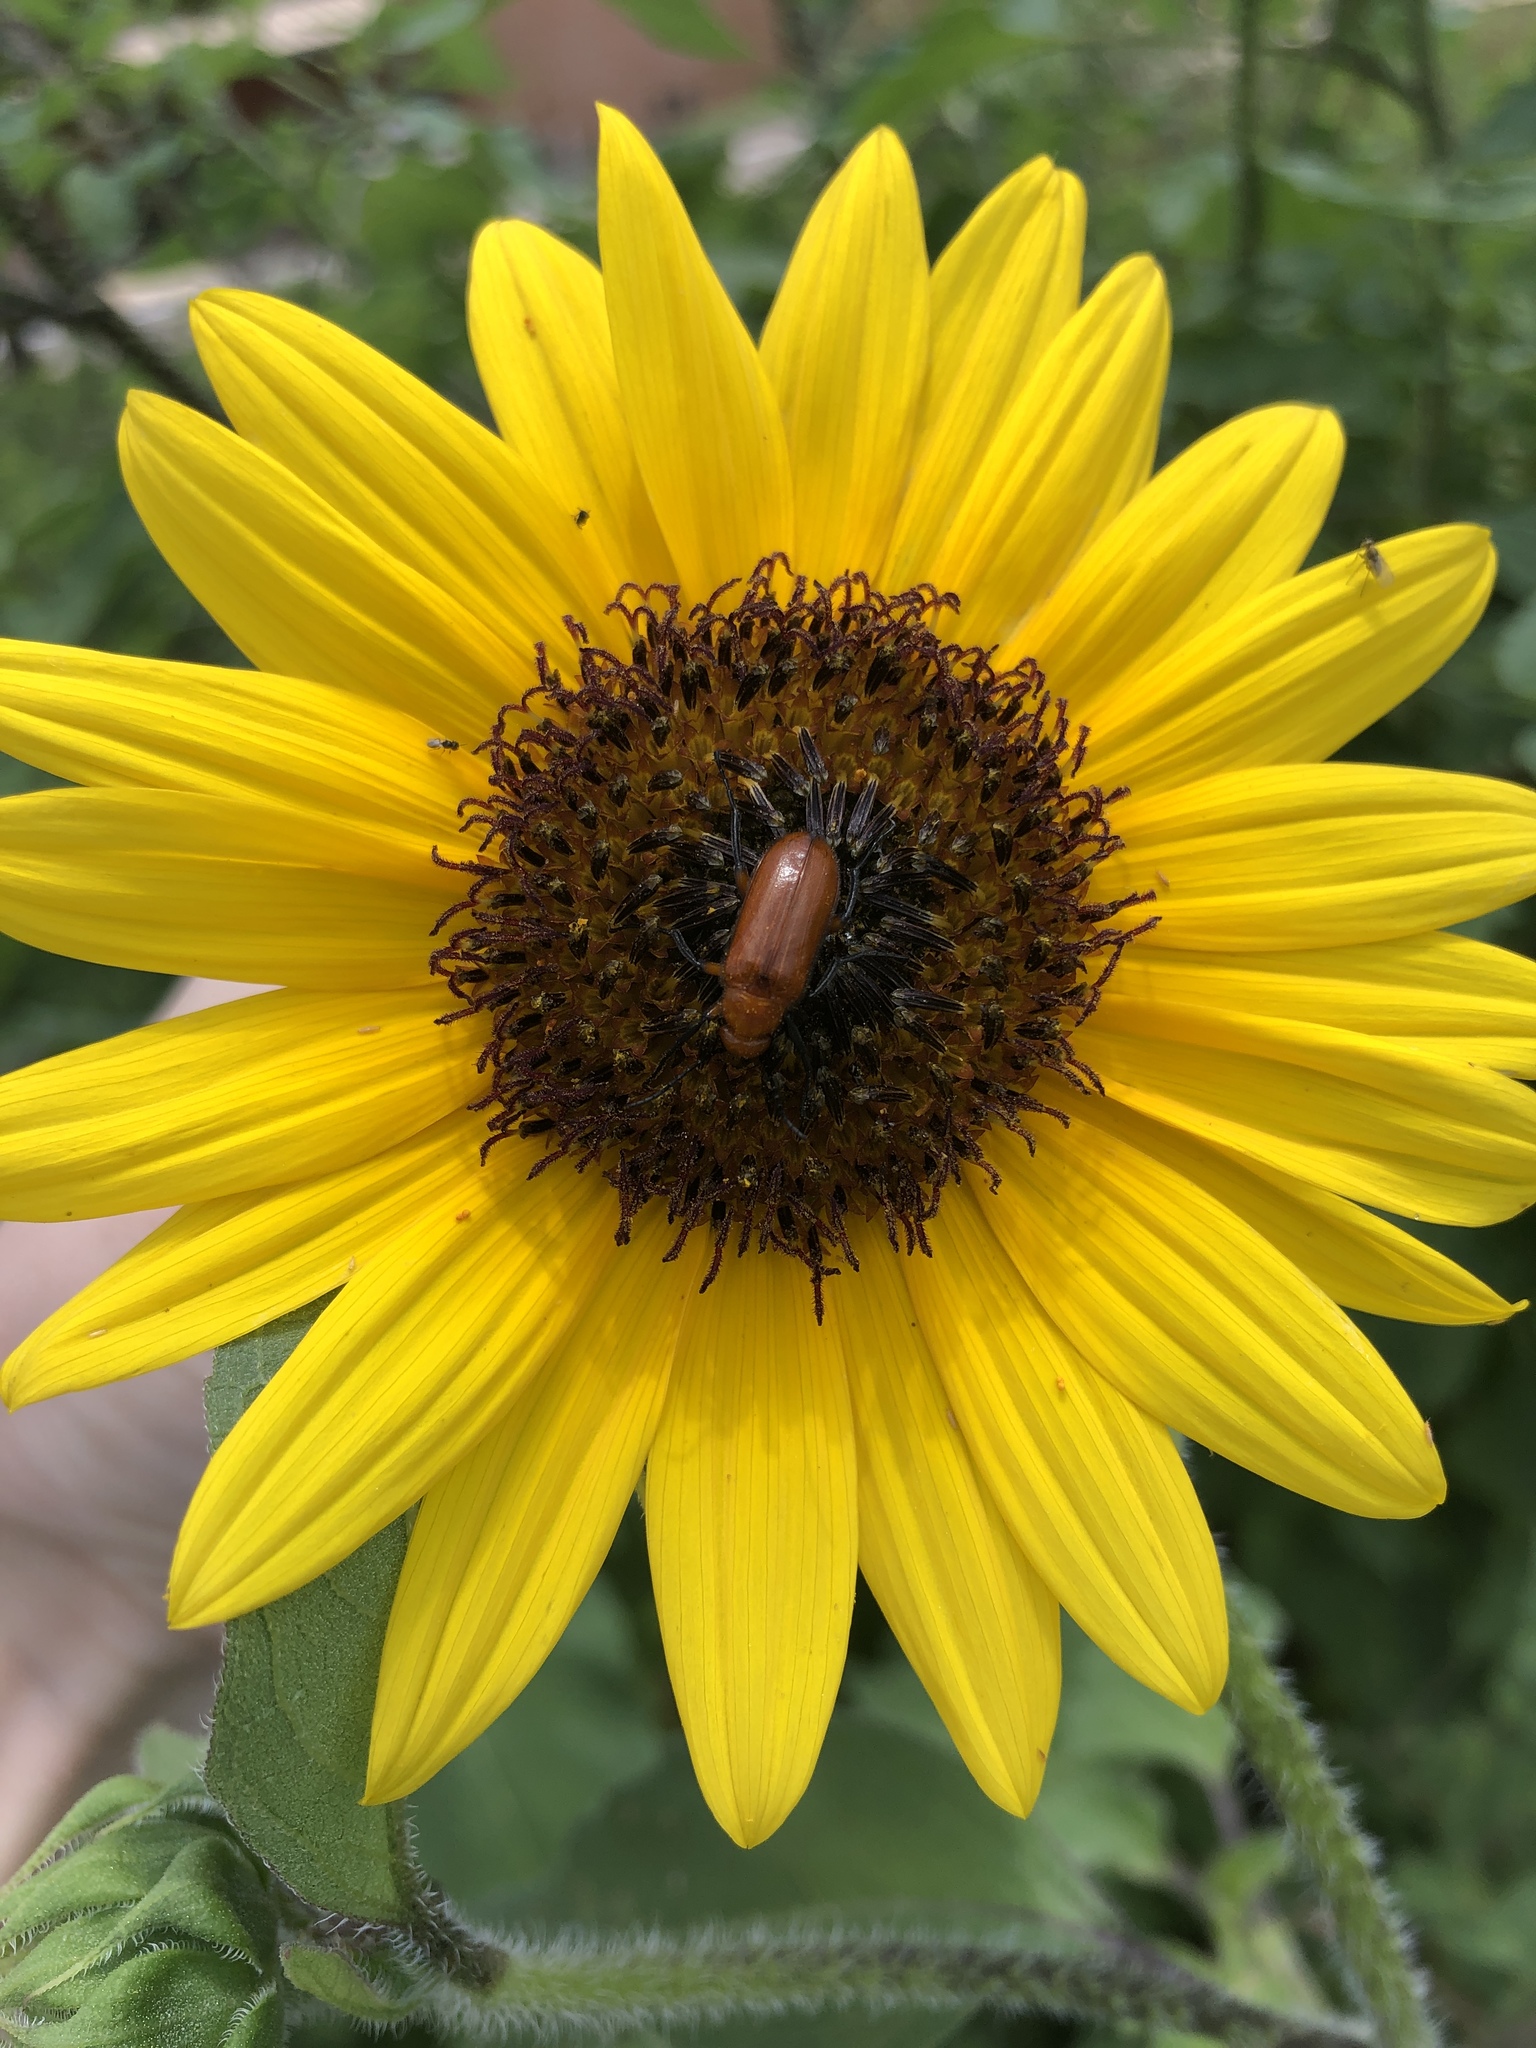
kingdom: Plantae
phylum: Tracheophyta
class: Magnoliopsida
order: Asterales
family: Asteraceae
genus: Helianthus
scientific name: Helianthus annuus
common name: Sunflower
